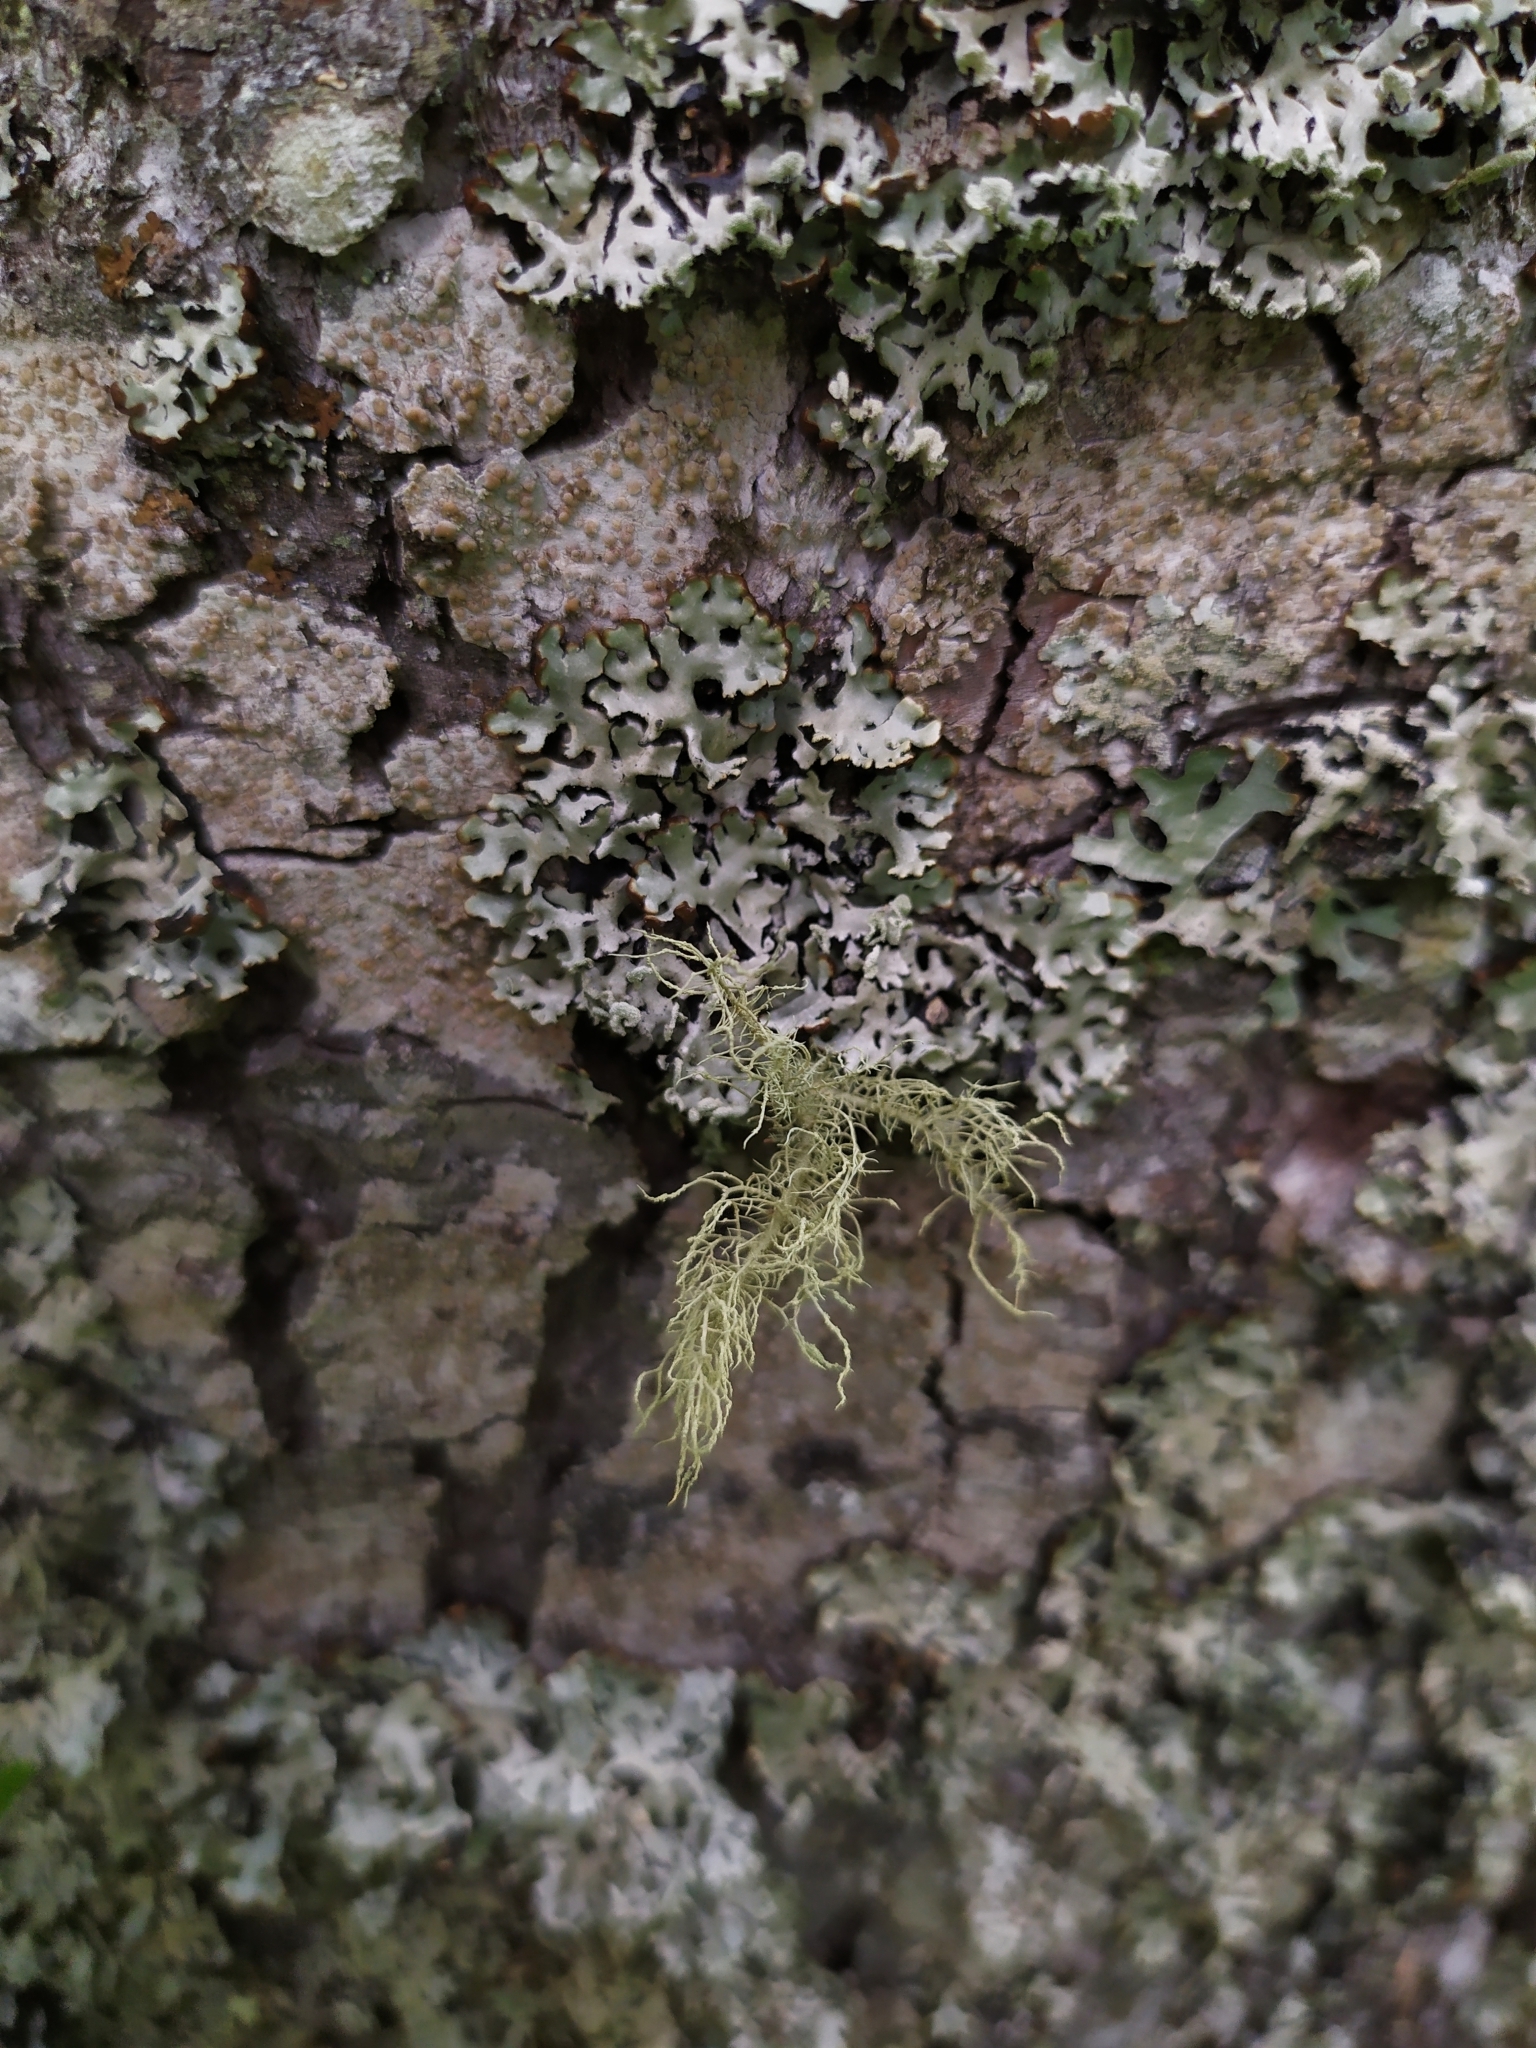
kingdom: Fungi
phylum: Ascomycota
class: Lecanoromycetes
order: Lecanorales
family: Parmeliaceae
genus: Usnea
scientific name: Usnea hirta
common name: Bristly beard lichen
